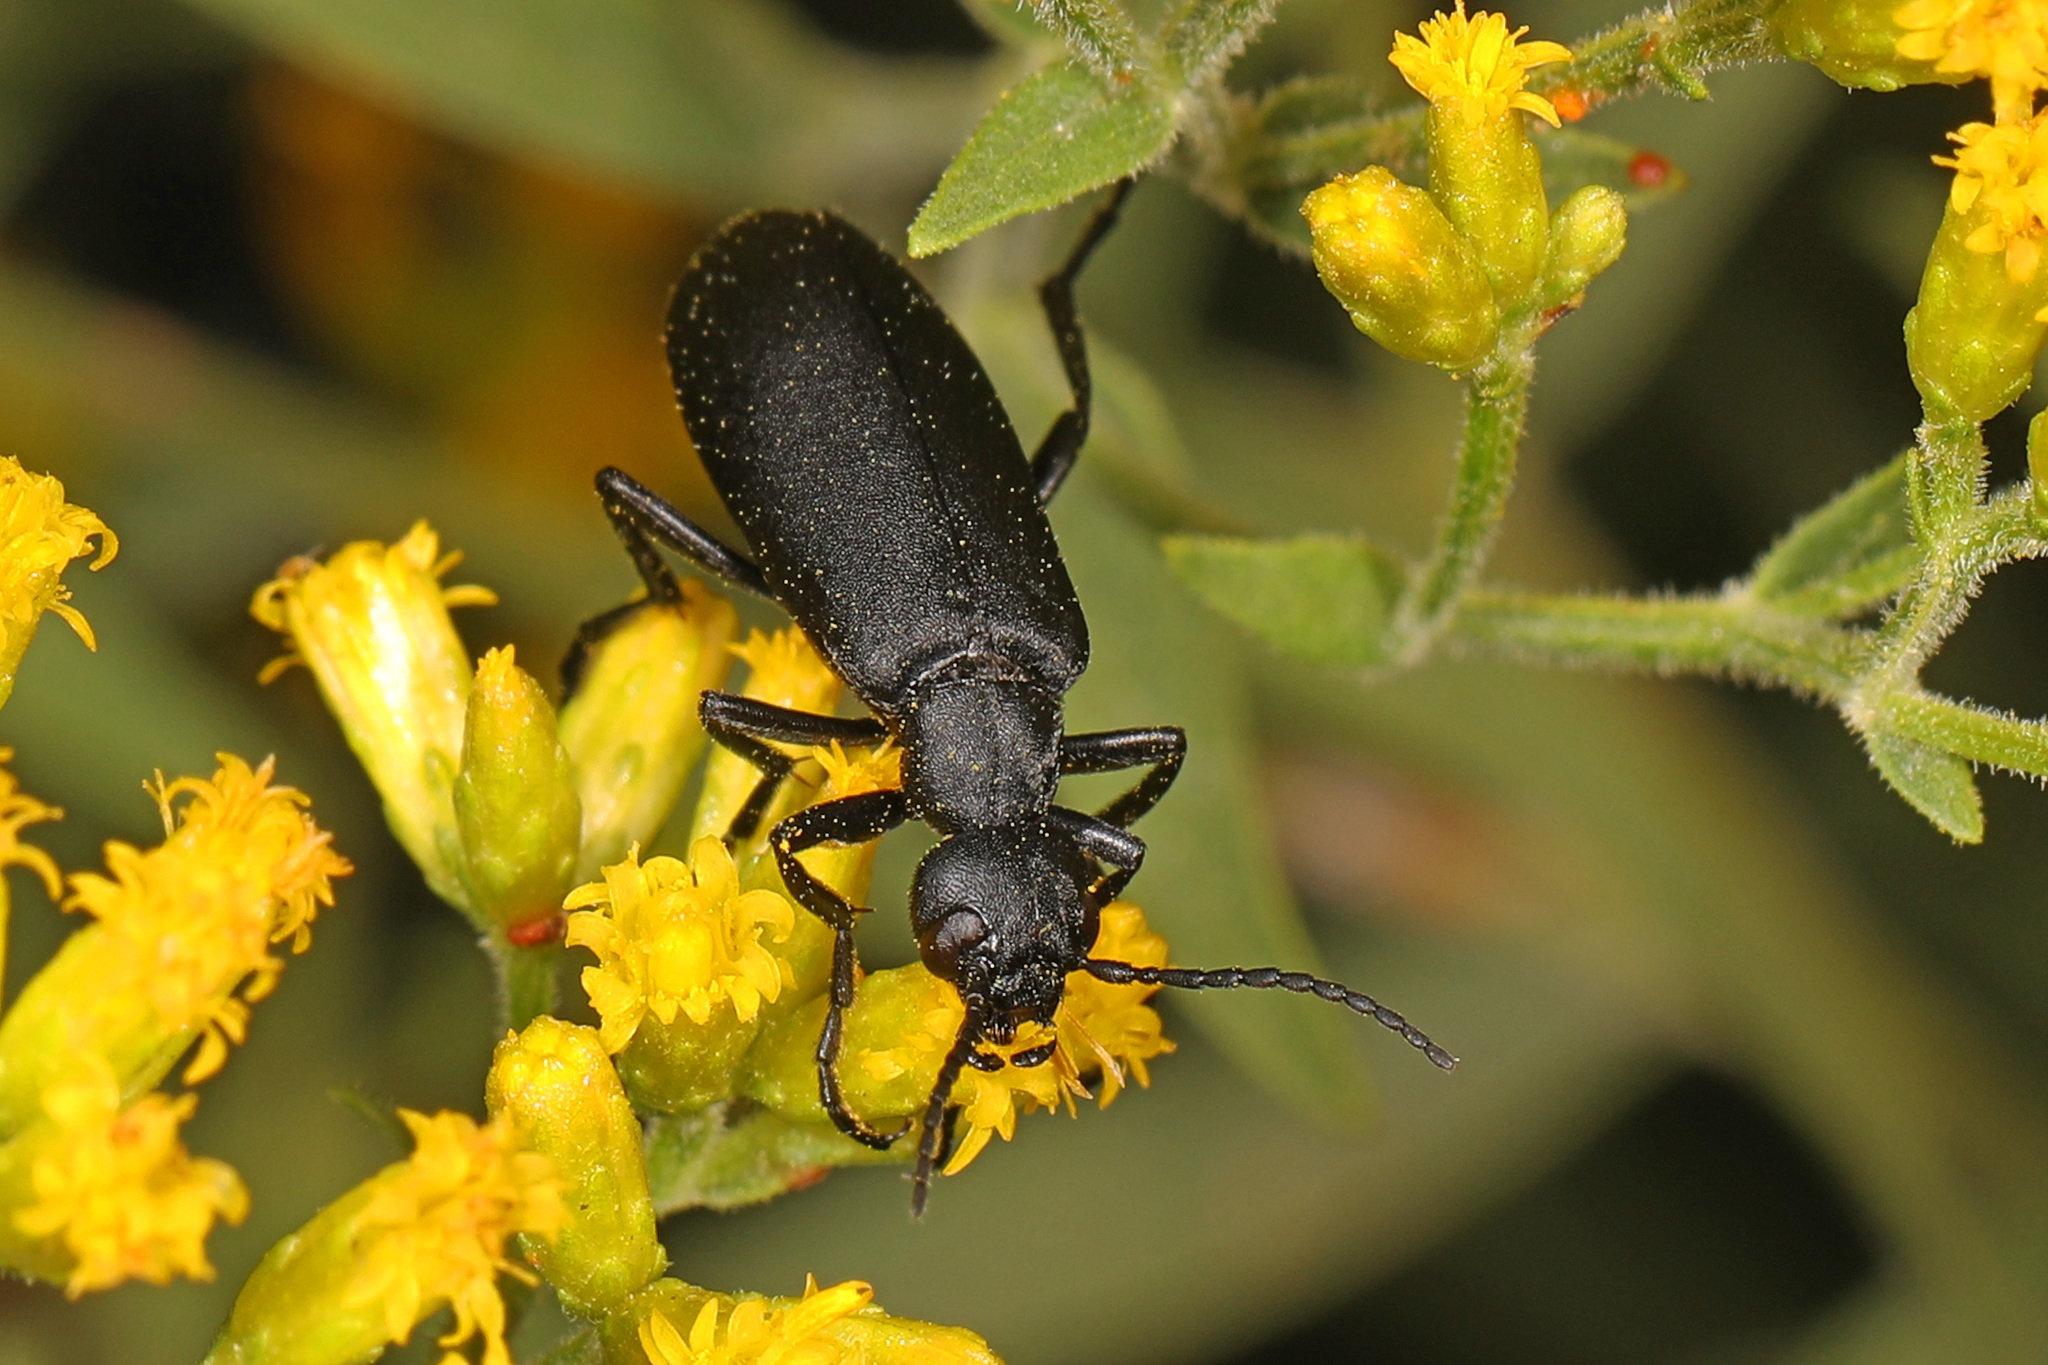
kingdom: Animalia
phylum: Arthropoda
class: Insecta
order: Coleoptera
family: Meloidae
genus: Epicauta
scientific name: Epicauta pensylvanica
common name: Black blister beetle
